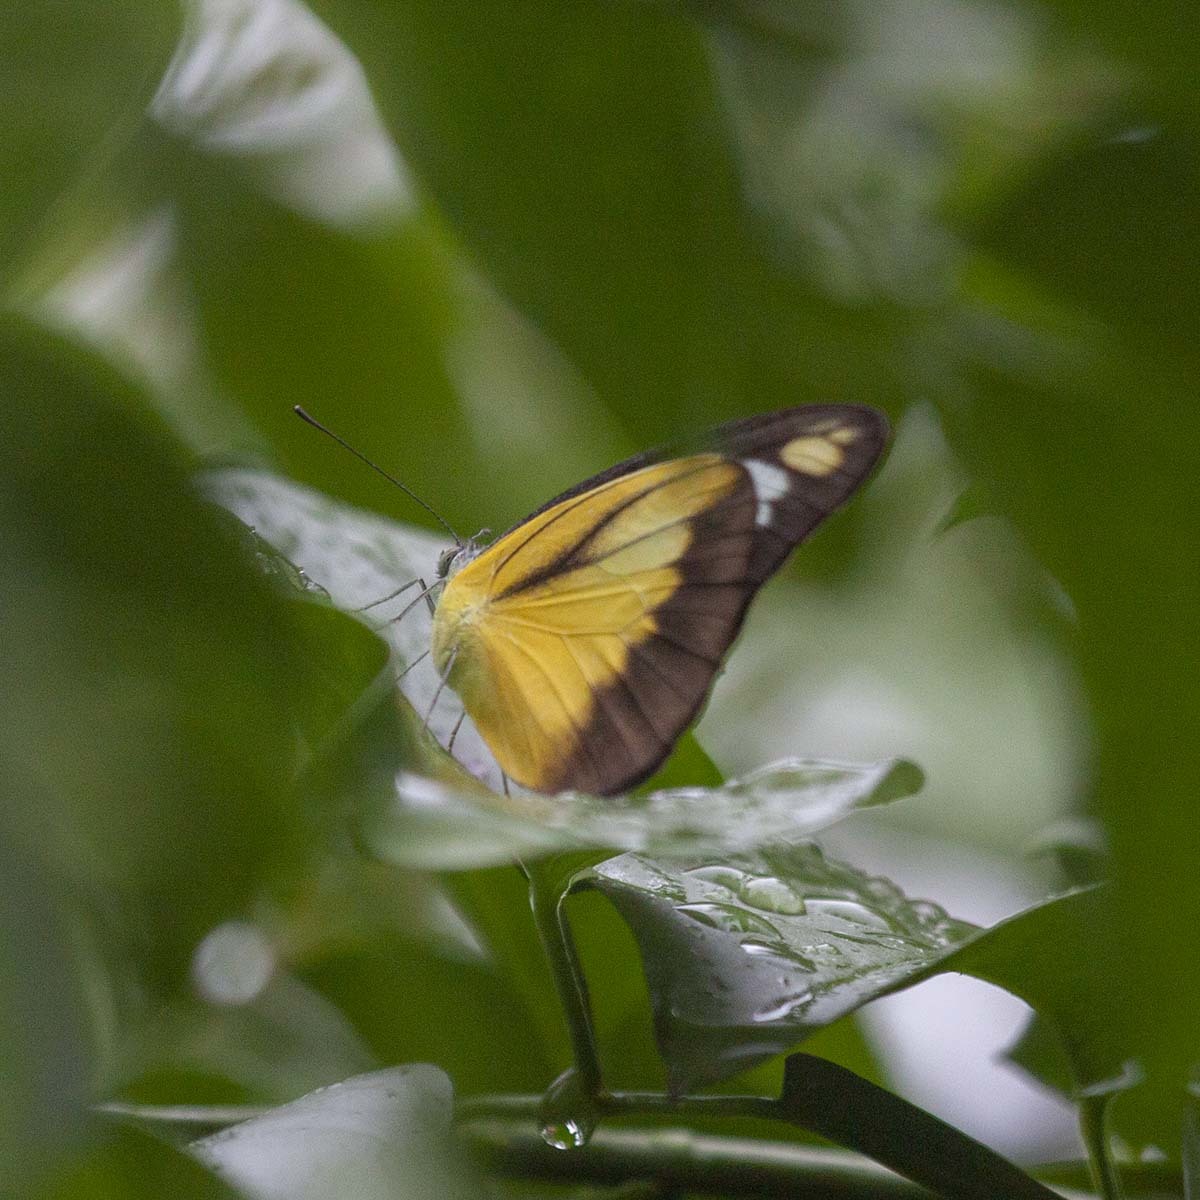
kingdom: Animalia
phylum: Arthropoda
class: Insecta
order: Lepidoptera
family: Pieridae
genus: Appias
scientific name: Appias lyncida
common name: Chocolate albatross
